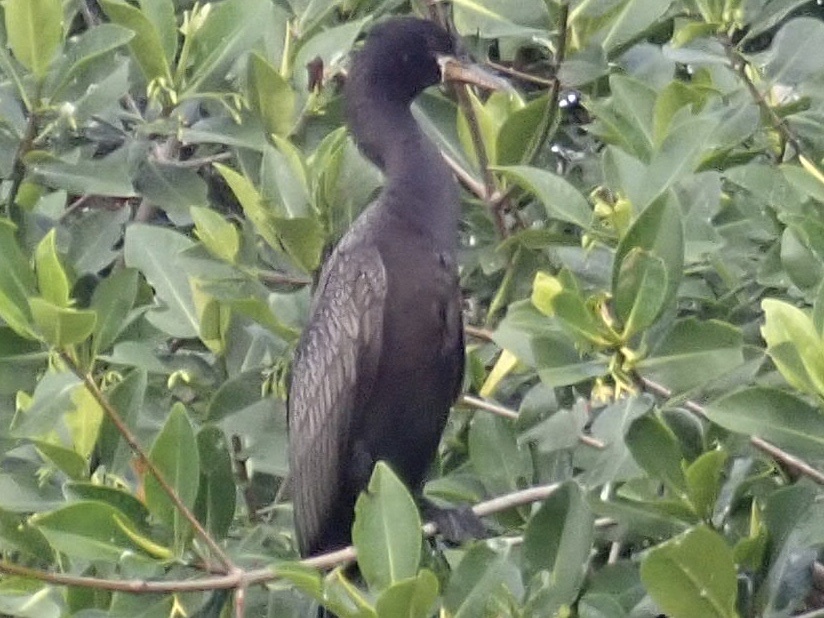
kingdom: Animalia
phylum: Chordata
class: Aves
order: Suliformes
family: Phalacrocoracidae
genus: Phalacrocorax
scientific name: Phalacrocorax brasilianus
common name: Neotropic cormorant
